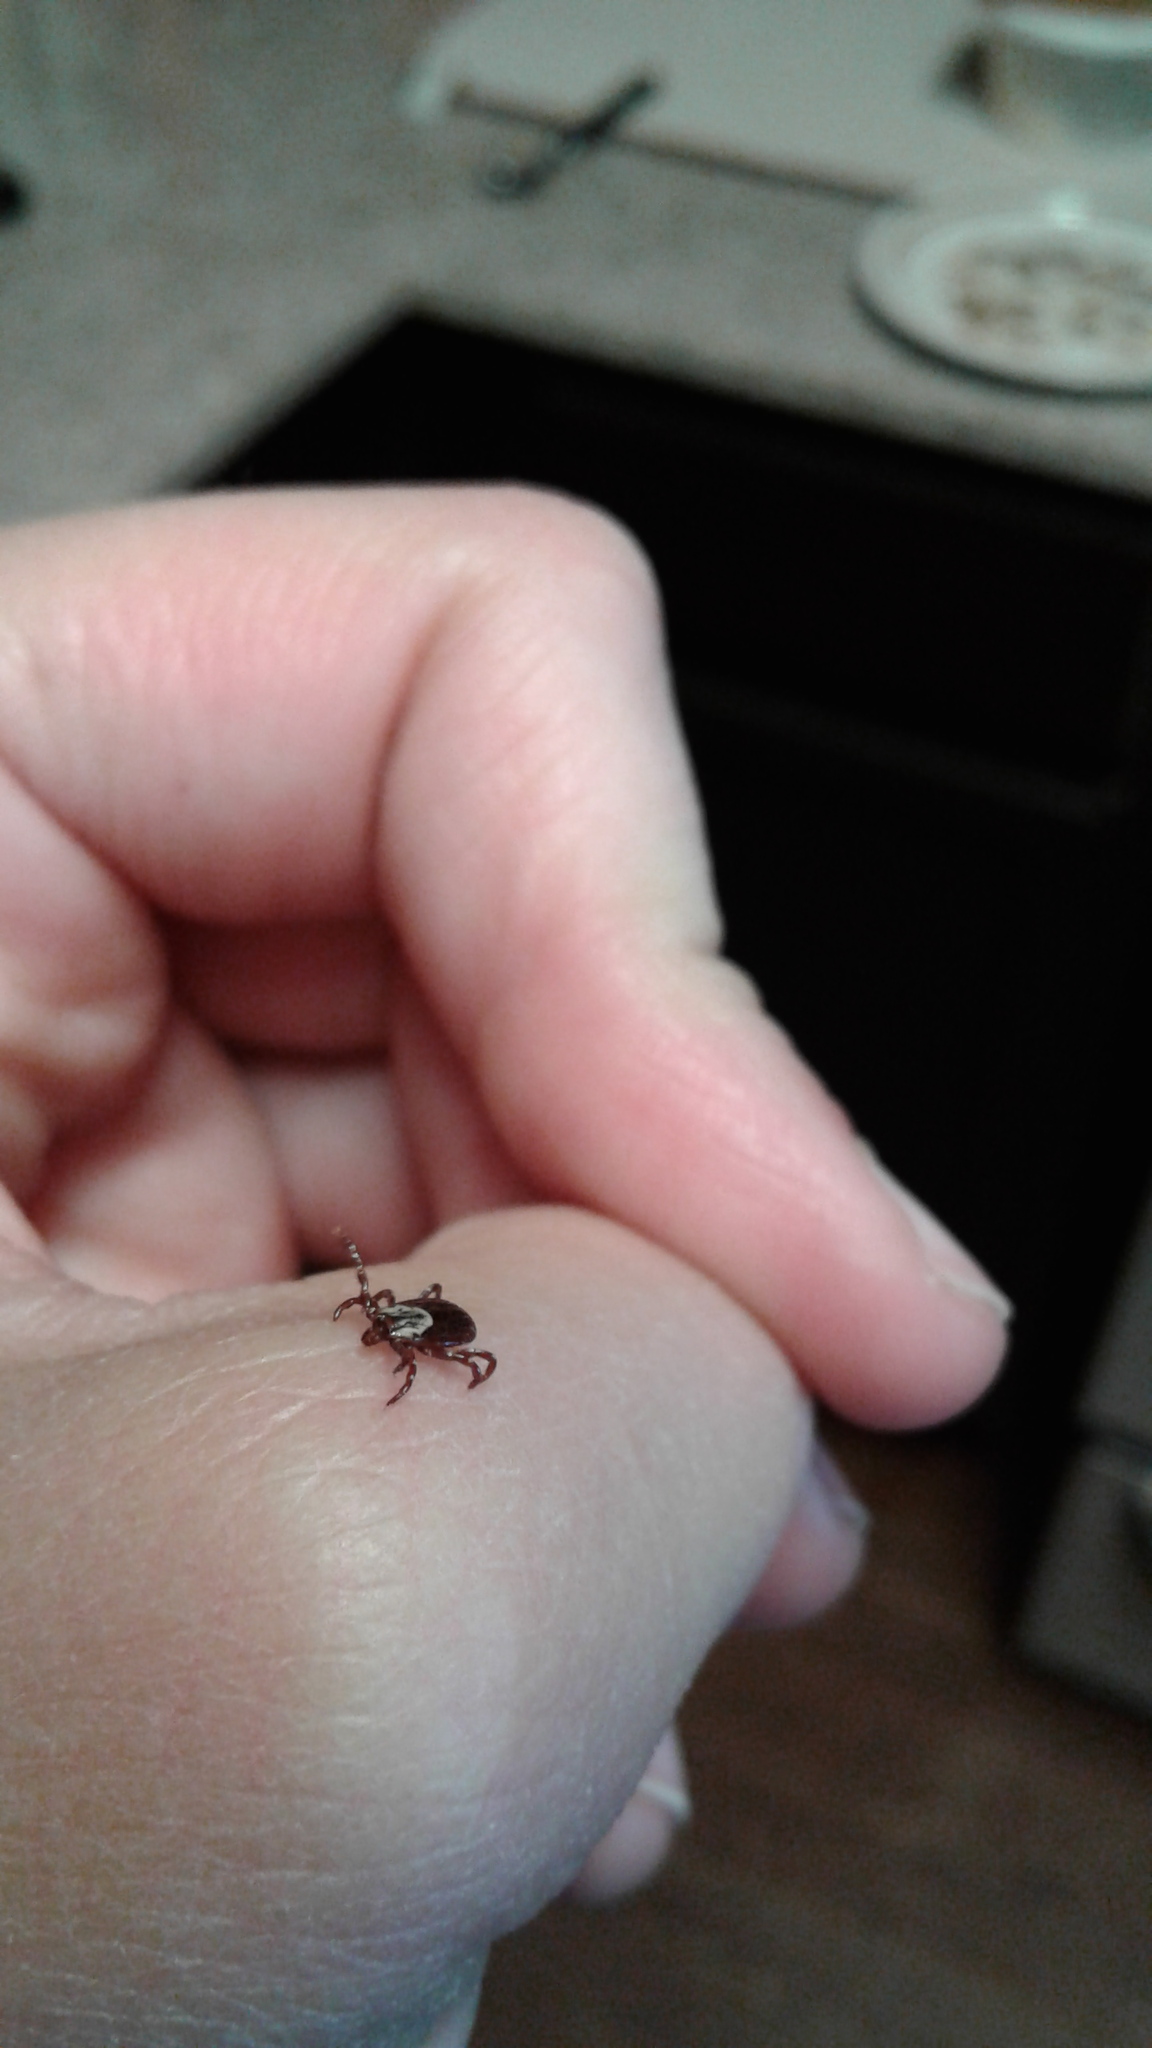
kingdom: Animalia
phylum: Arthropoda
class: Arachnida
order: Ixodida
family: Ixodidae
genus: Dermacentor
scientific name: Dermacentor variabilis
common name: American dog tick
